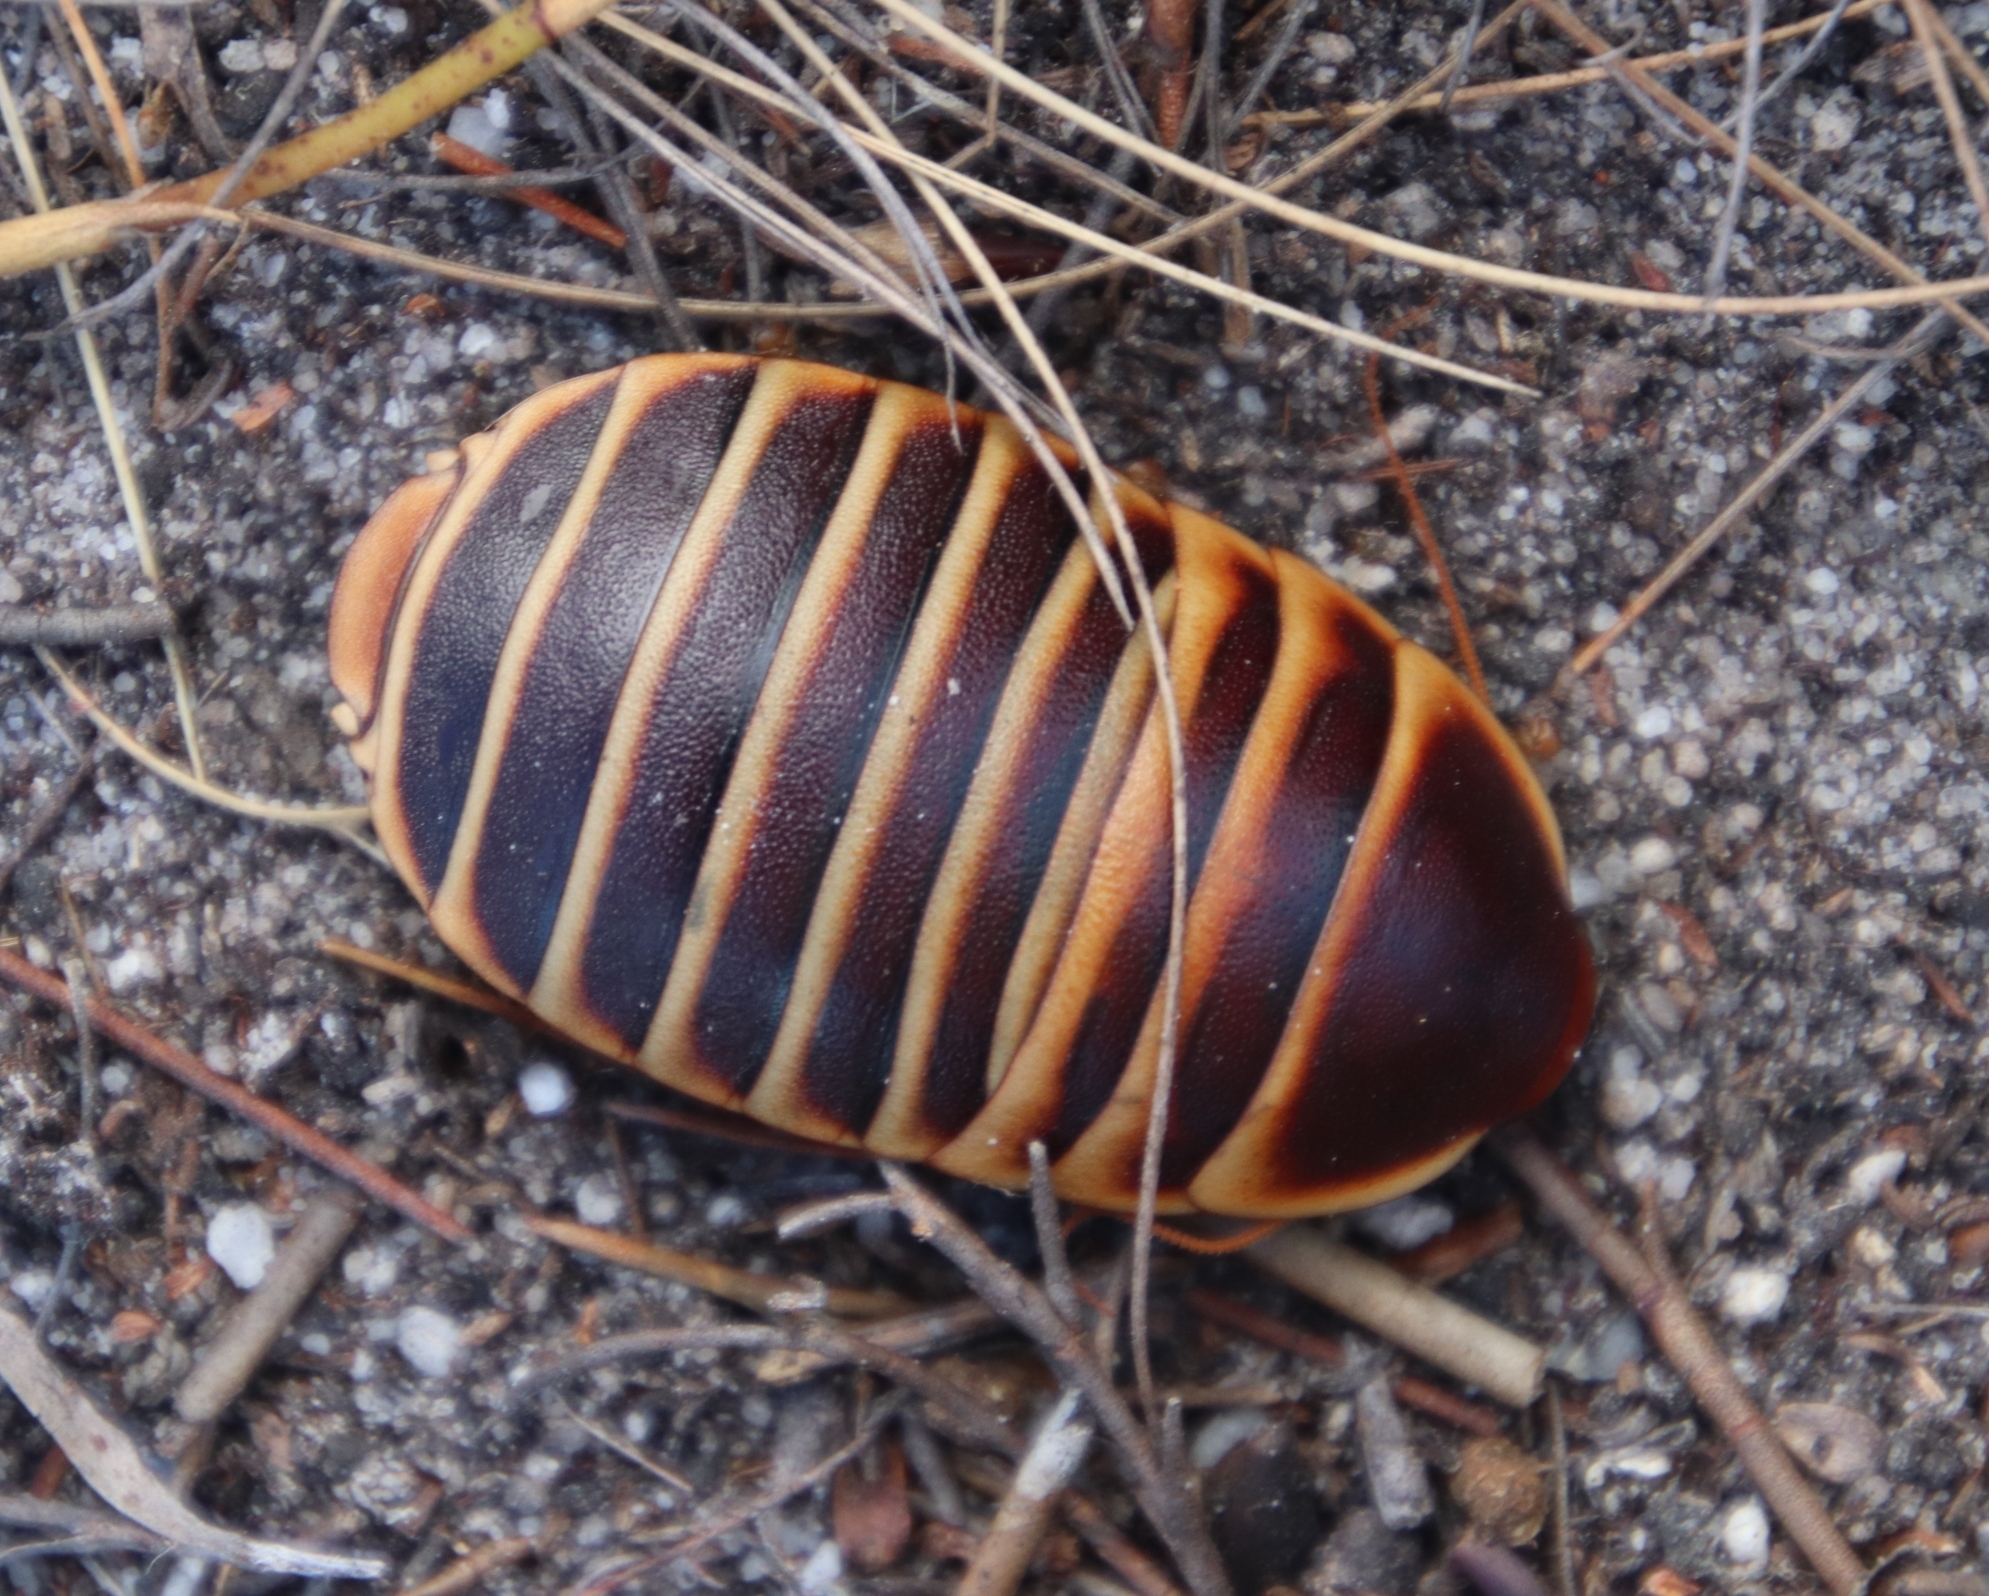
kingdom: Animalia
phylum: Arthropoda
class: Insecta
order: Blattodea
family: Blaberidae
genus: Aptera
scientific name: Aptera fusca
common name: Cape mountain cockroach
